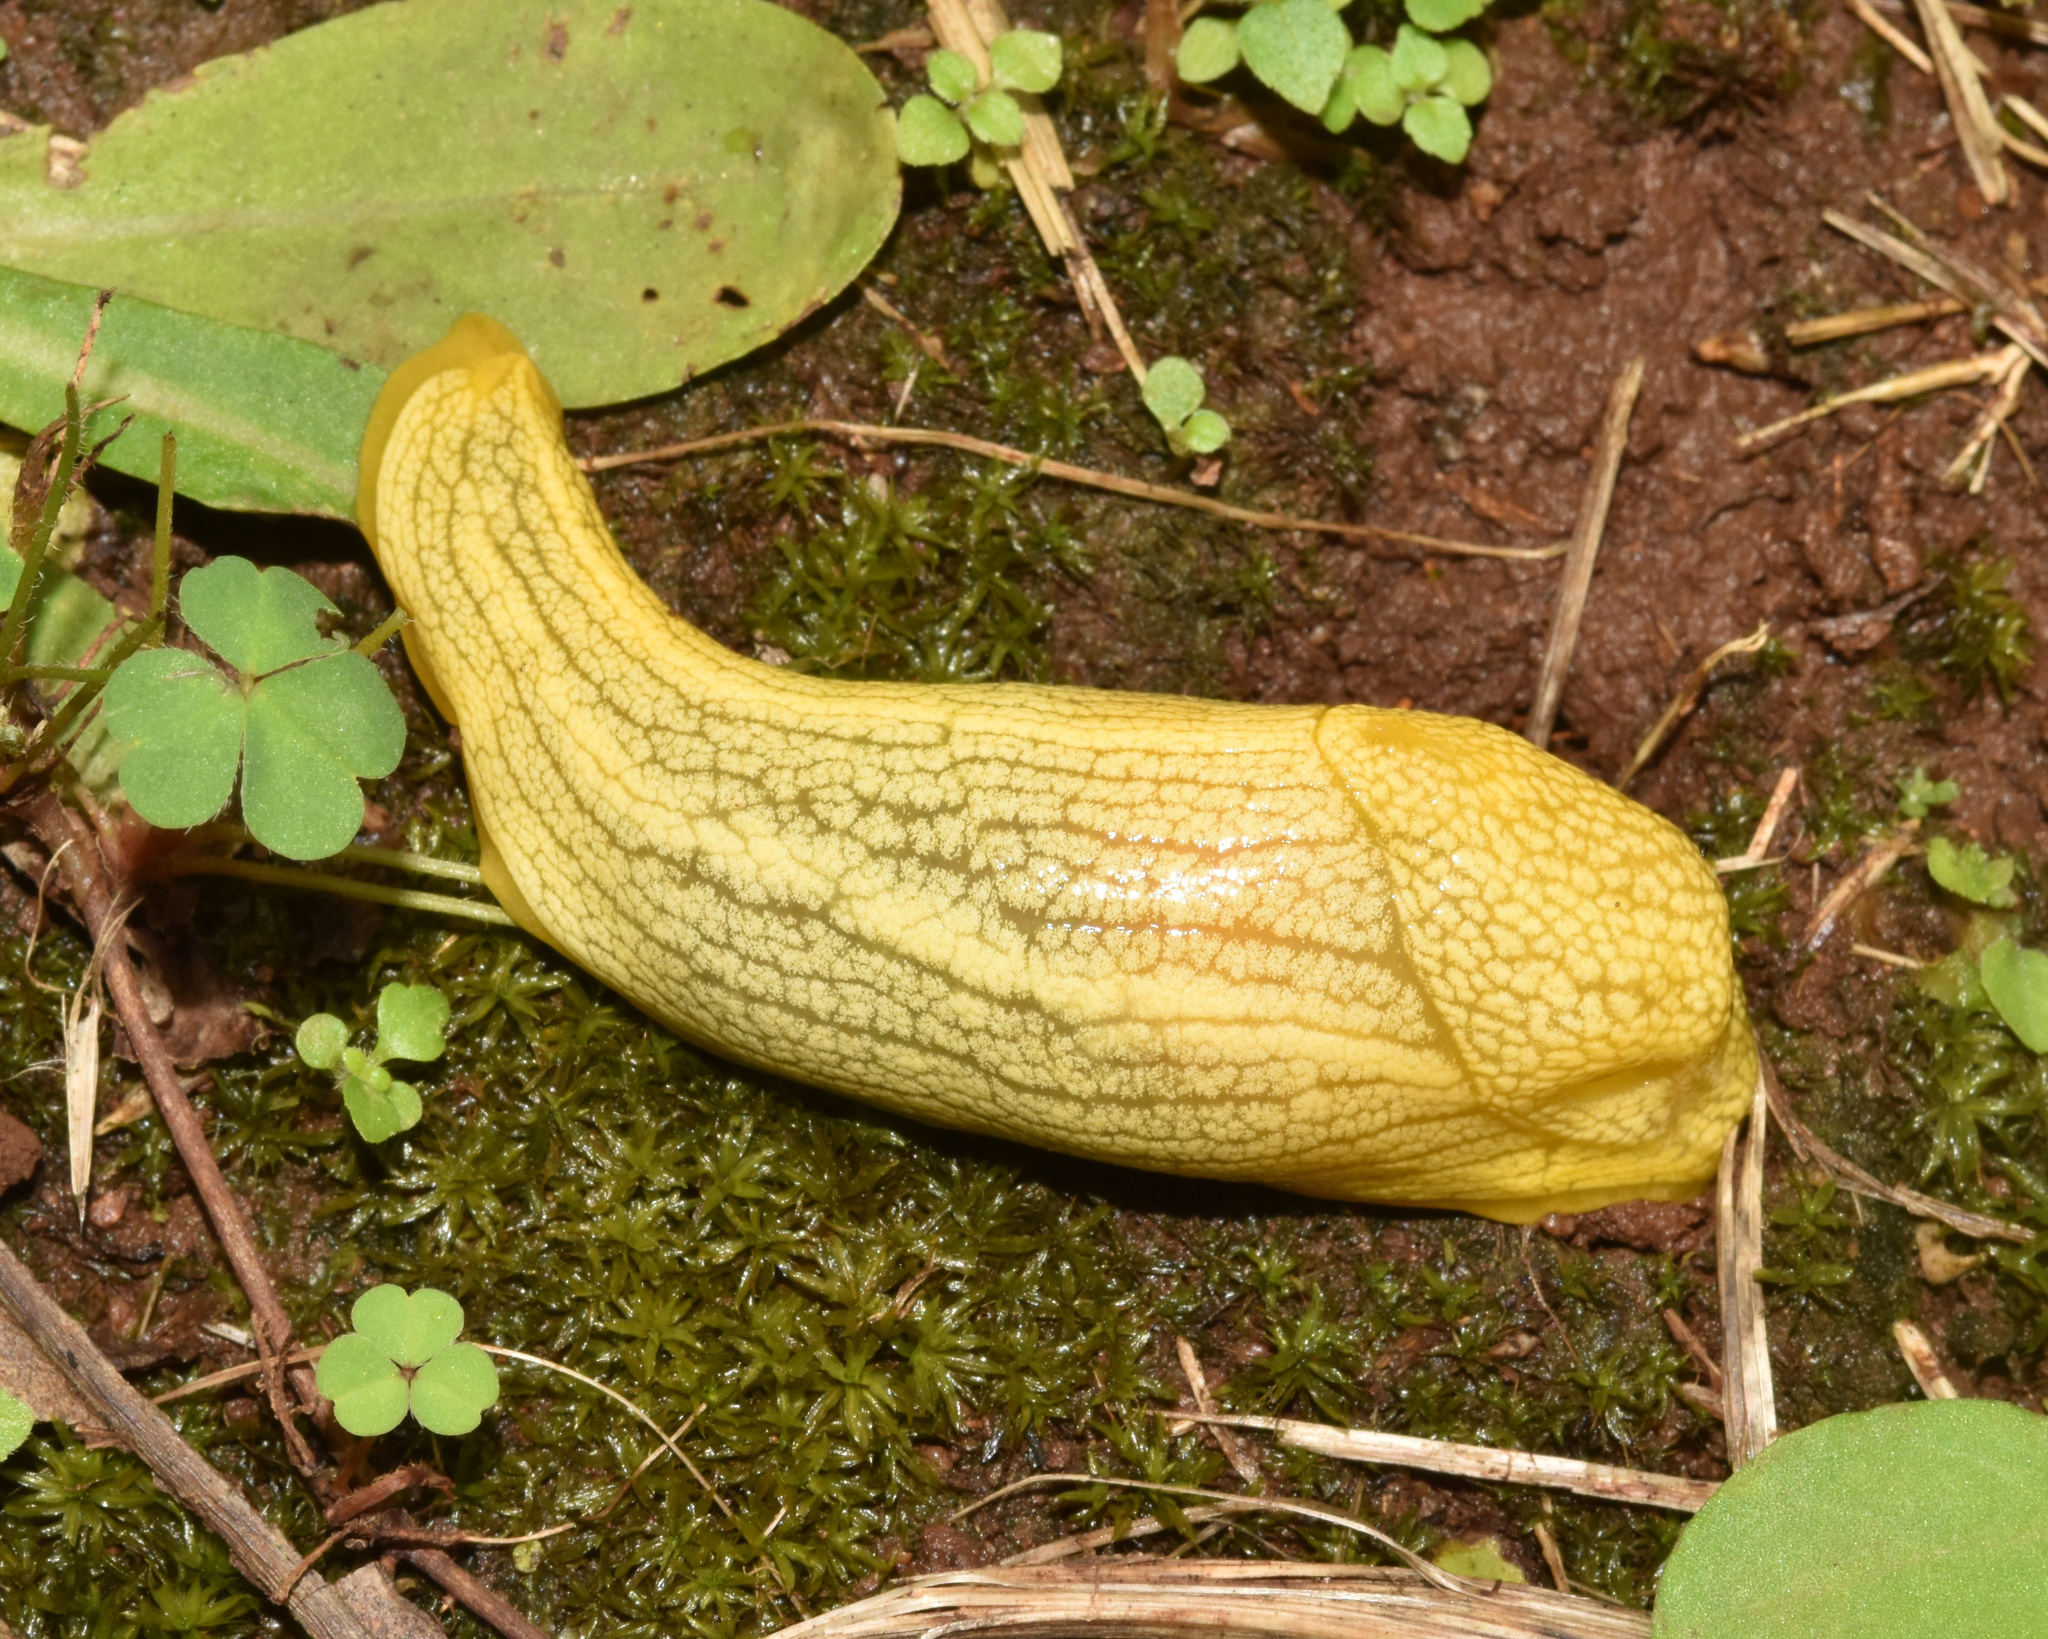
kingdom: Animalia
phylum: Mollusca
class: Gastropoda
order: Stylommatophora
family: Urocyclidae
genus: Elisolimax
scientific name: Elisolimax flavescens
